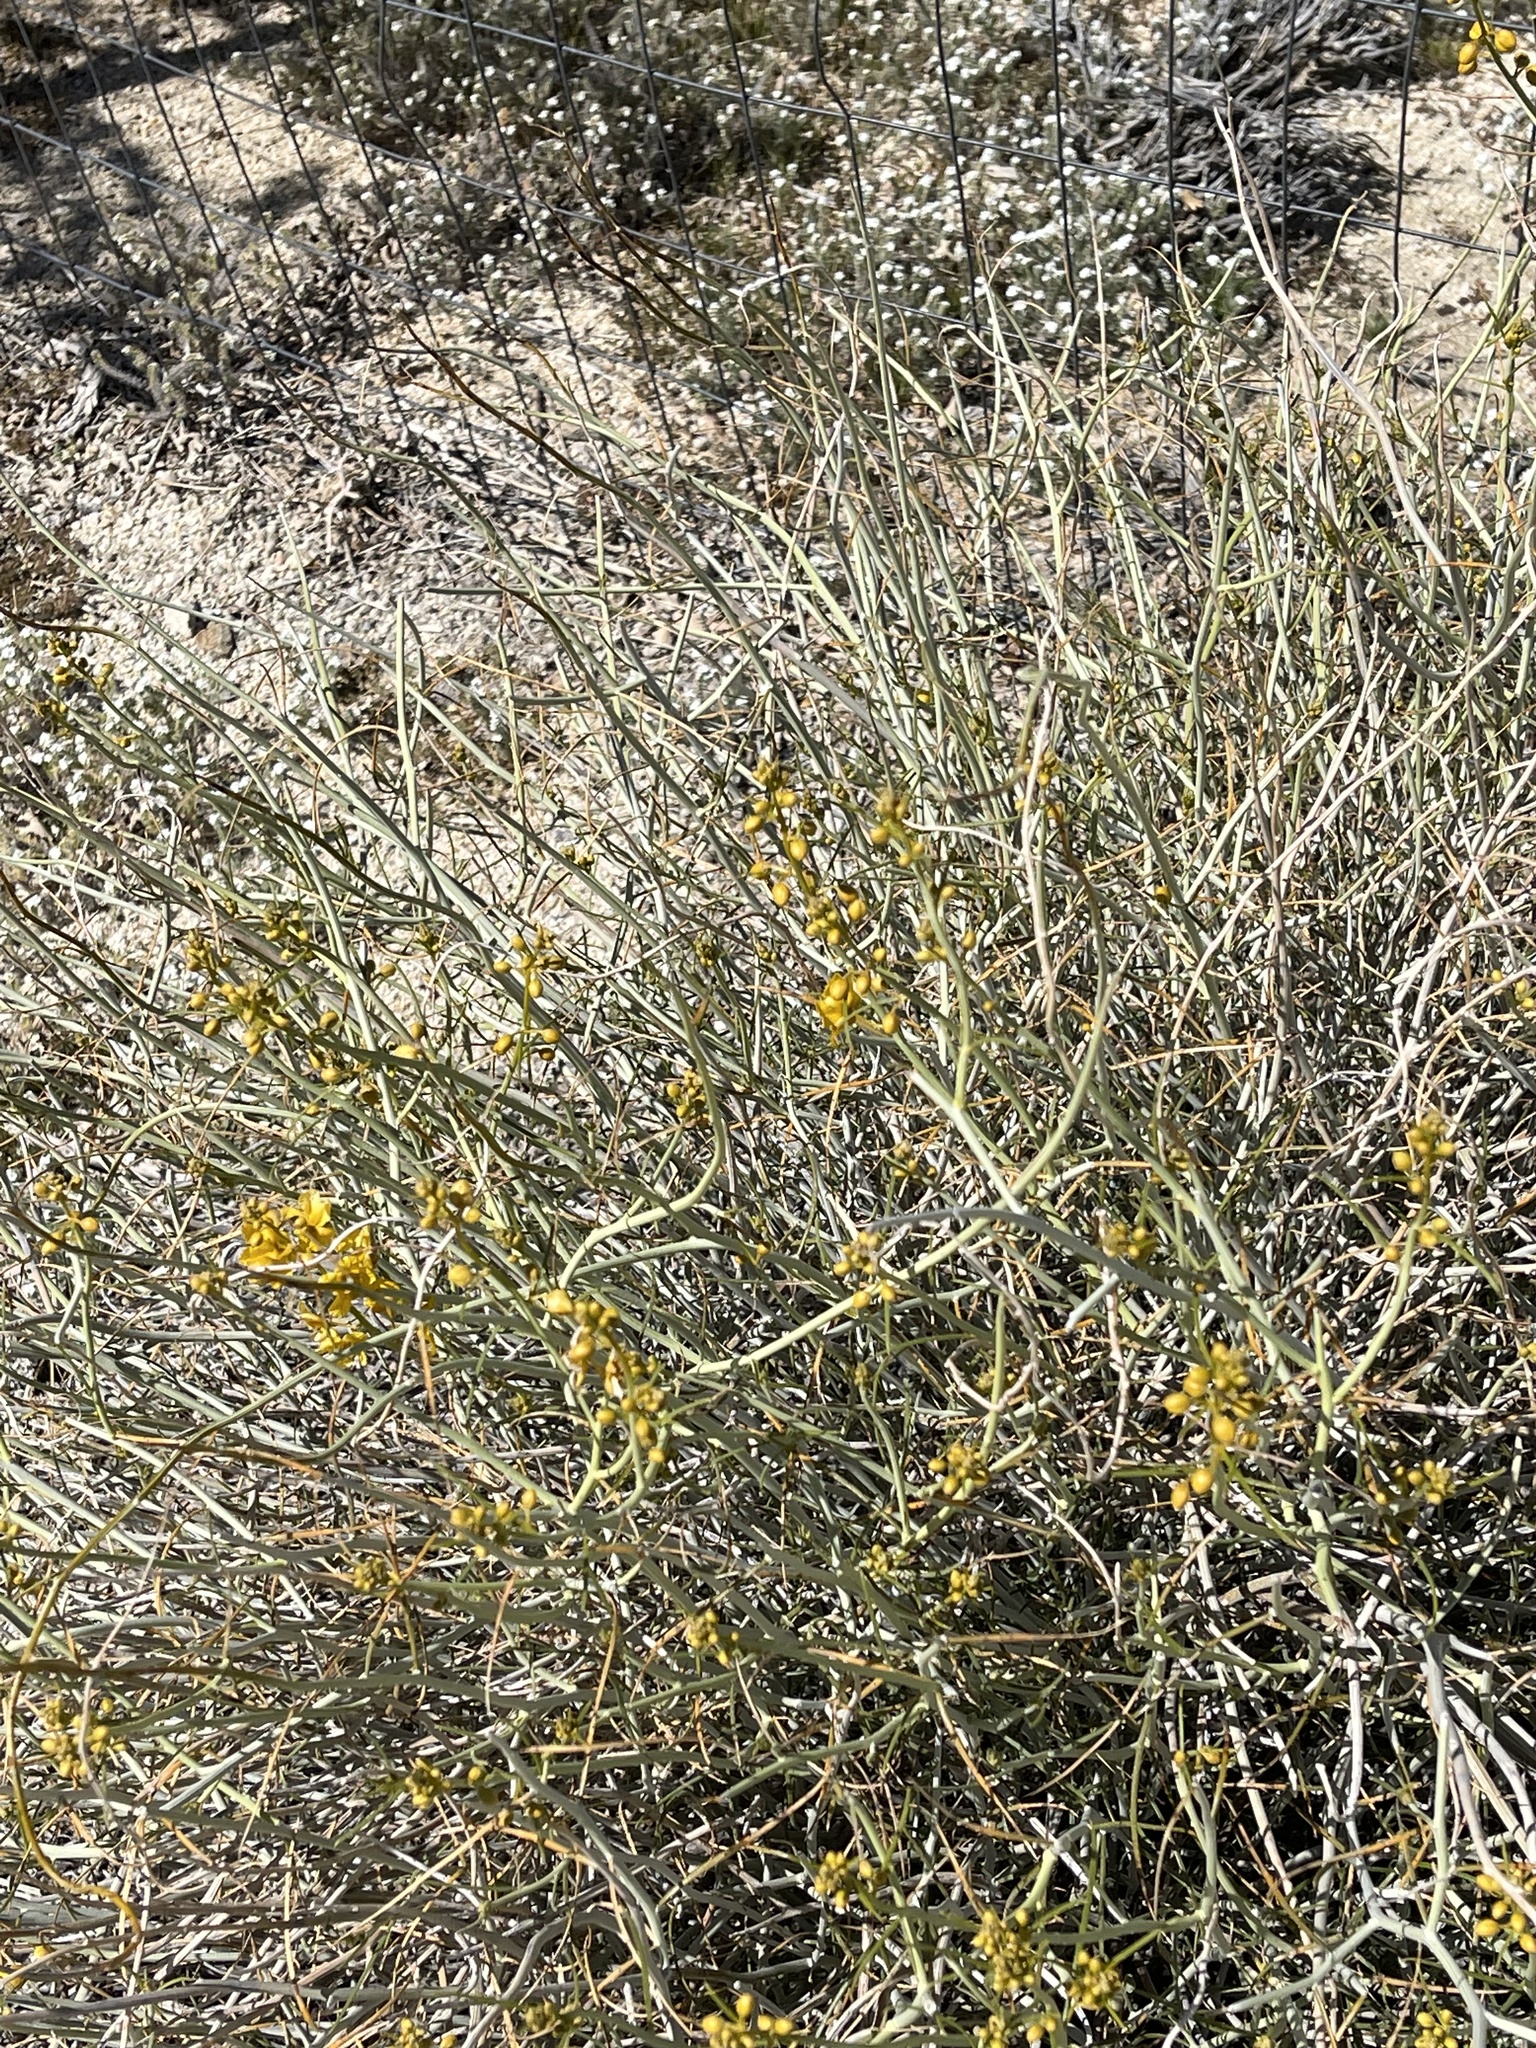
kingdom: Plantae
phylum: Tracheophyta
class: Magnoliopsida
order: Fabales
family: Fabaceae
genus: Senna
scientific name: Senna armata
